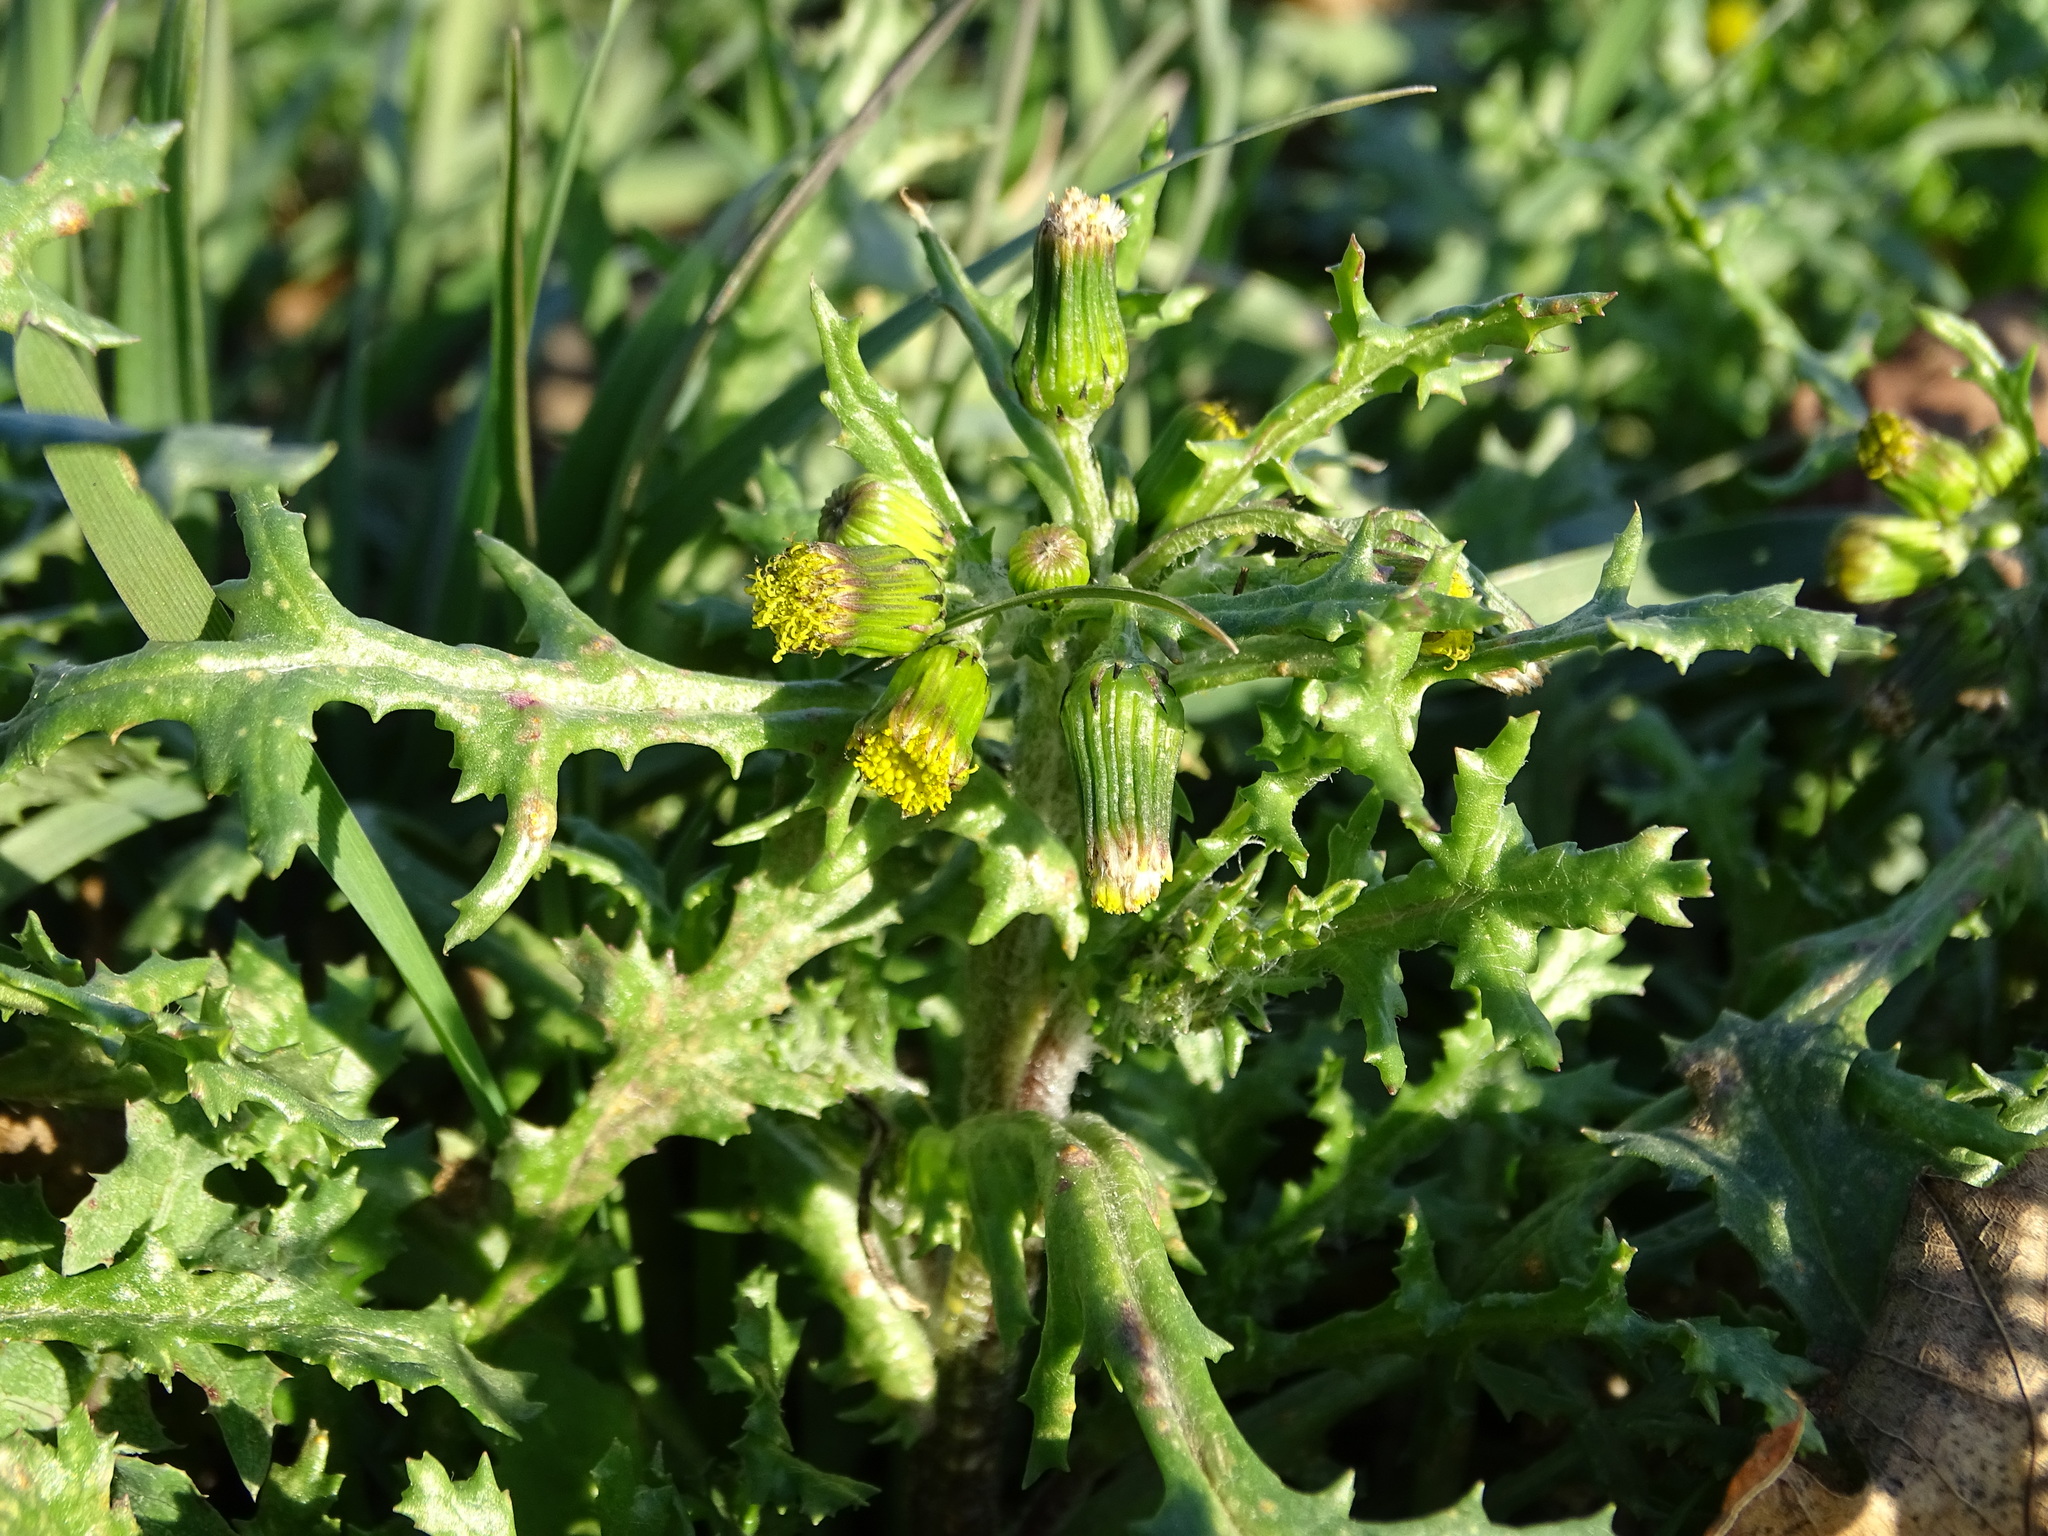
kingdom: Plantae
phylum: Tracheophyta
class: Magnoliopsida
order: Asterales
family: Asteraceae
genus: Senecio
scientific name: Senecio vulgaris
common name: Old-man-in-the-spring
